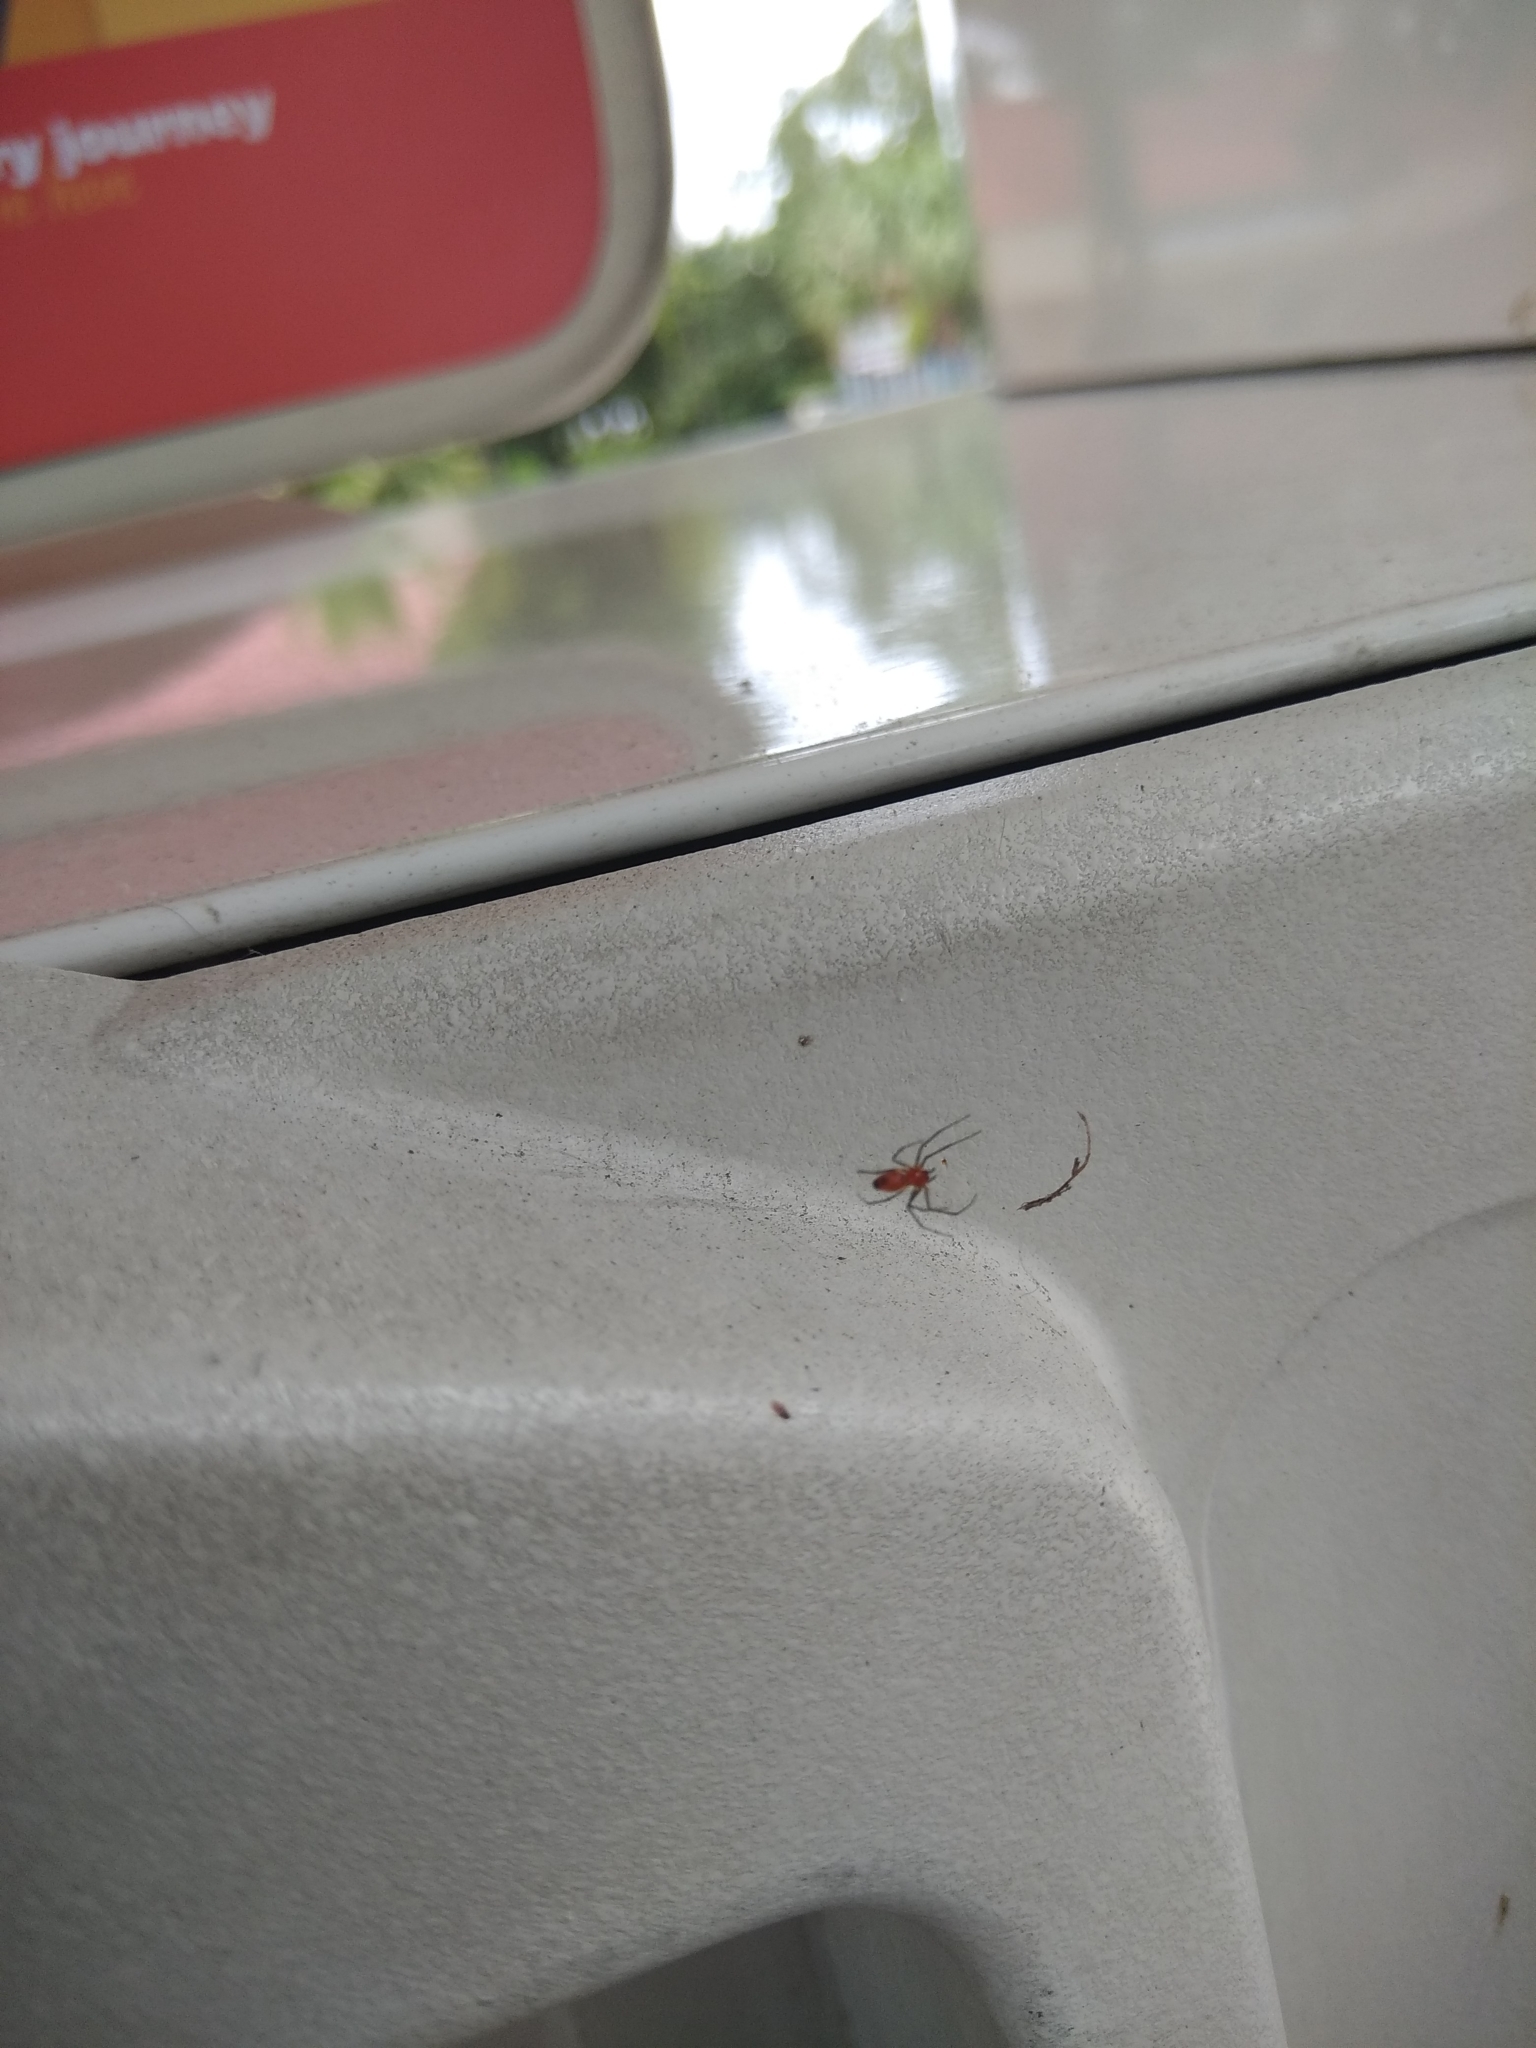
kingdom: Animalia
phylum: Arthropoda
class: Arachnida
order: Araneae
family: Linyphiidae
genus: Florinda
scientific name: Florinda coccinea
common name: Black-tailed red sheetweaver
